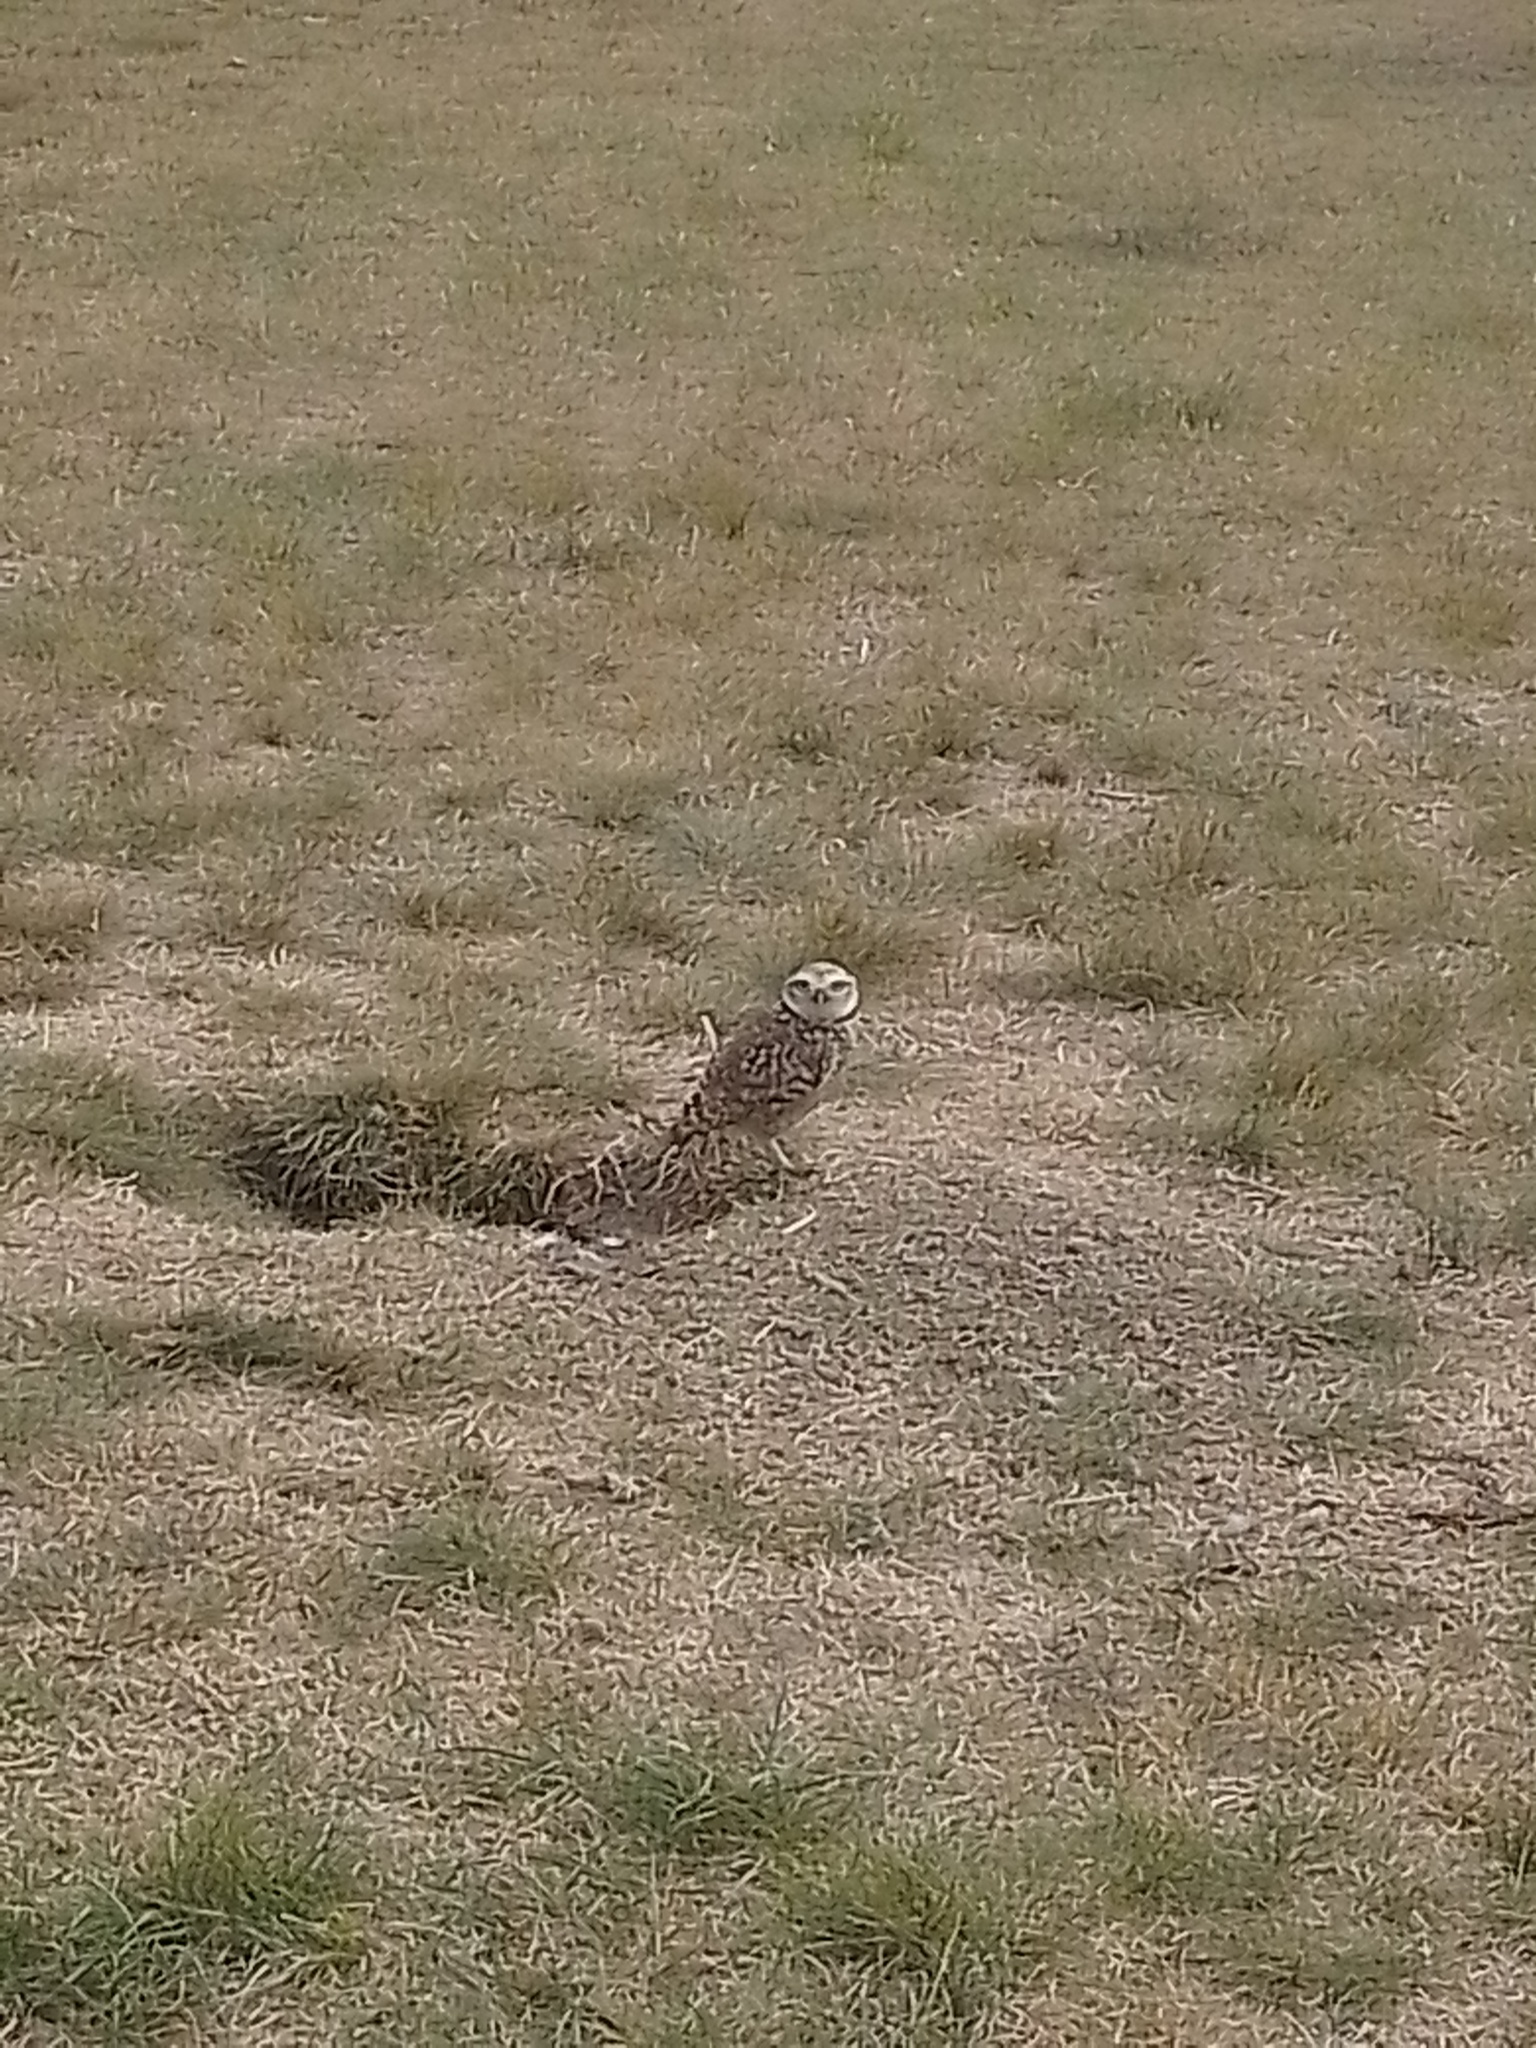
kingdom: Animalia
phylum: Chordata
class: Aves
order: Strigiformes
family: Strigidae
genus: Athene
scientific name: Athene cunicularia
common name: Burrowing owl
